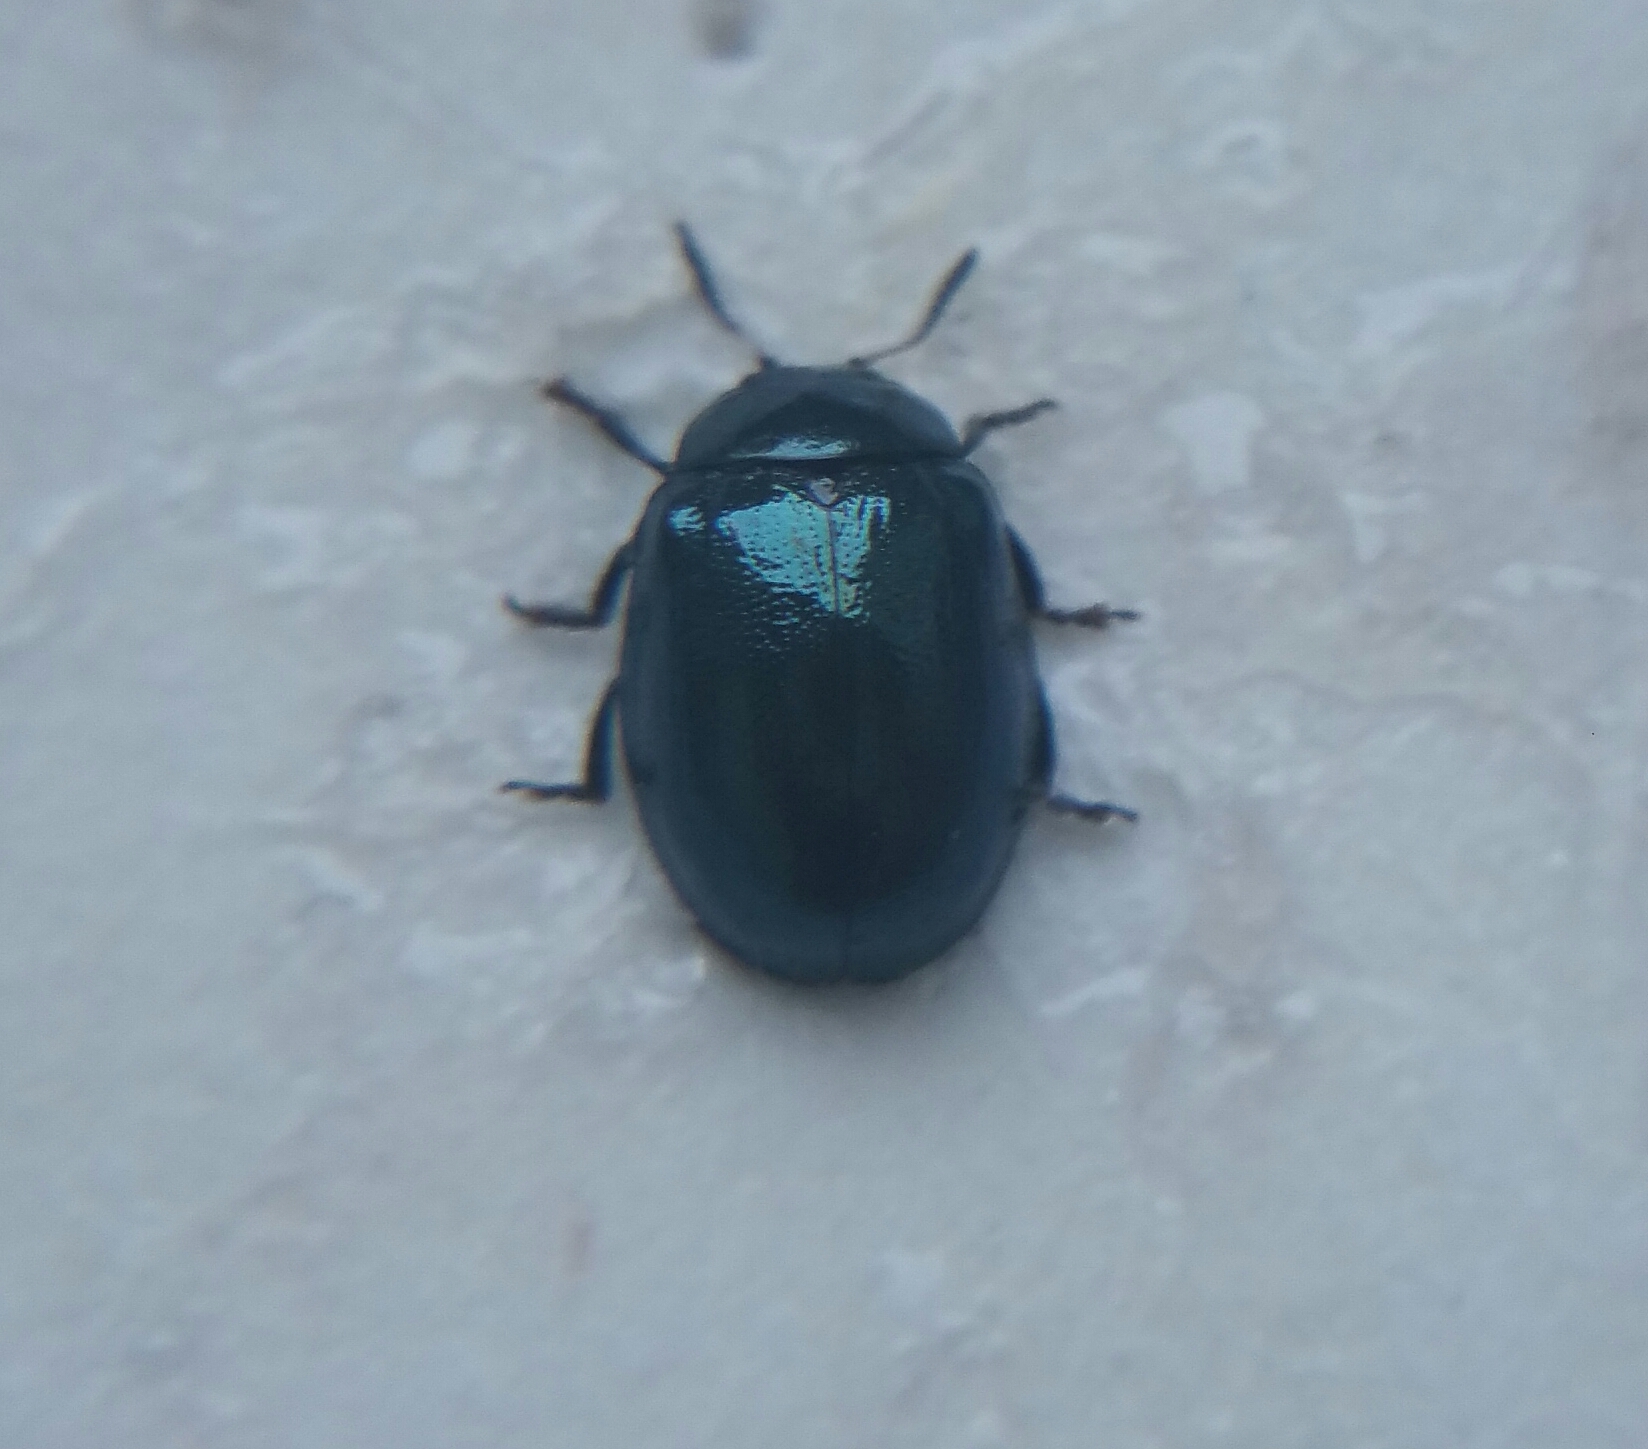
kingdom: Animalia
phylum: Arthropoda
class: Insecta
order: Coleoptera
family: Chrysomelidae
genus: Plagiodera
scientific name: Plagiodera versicolora
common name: Imported willow leaf beetle
